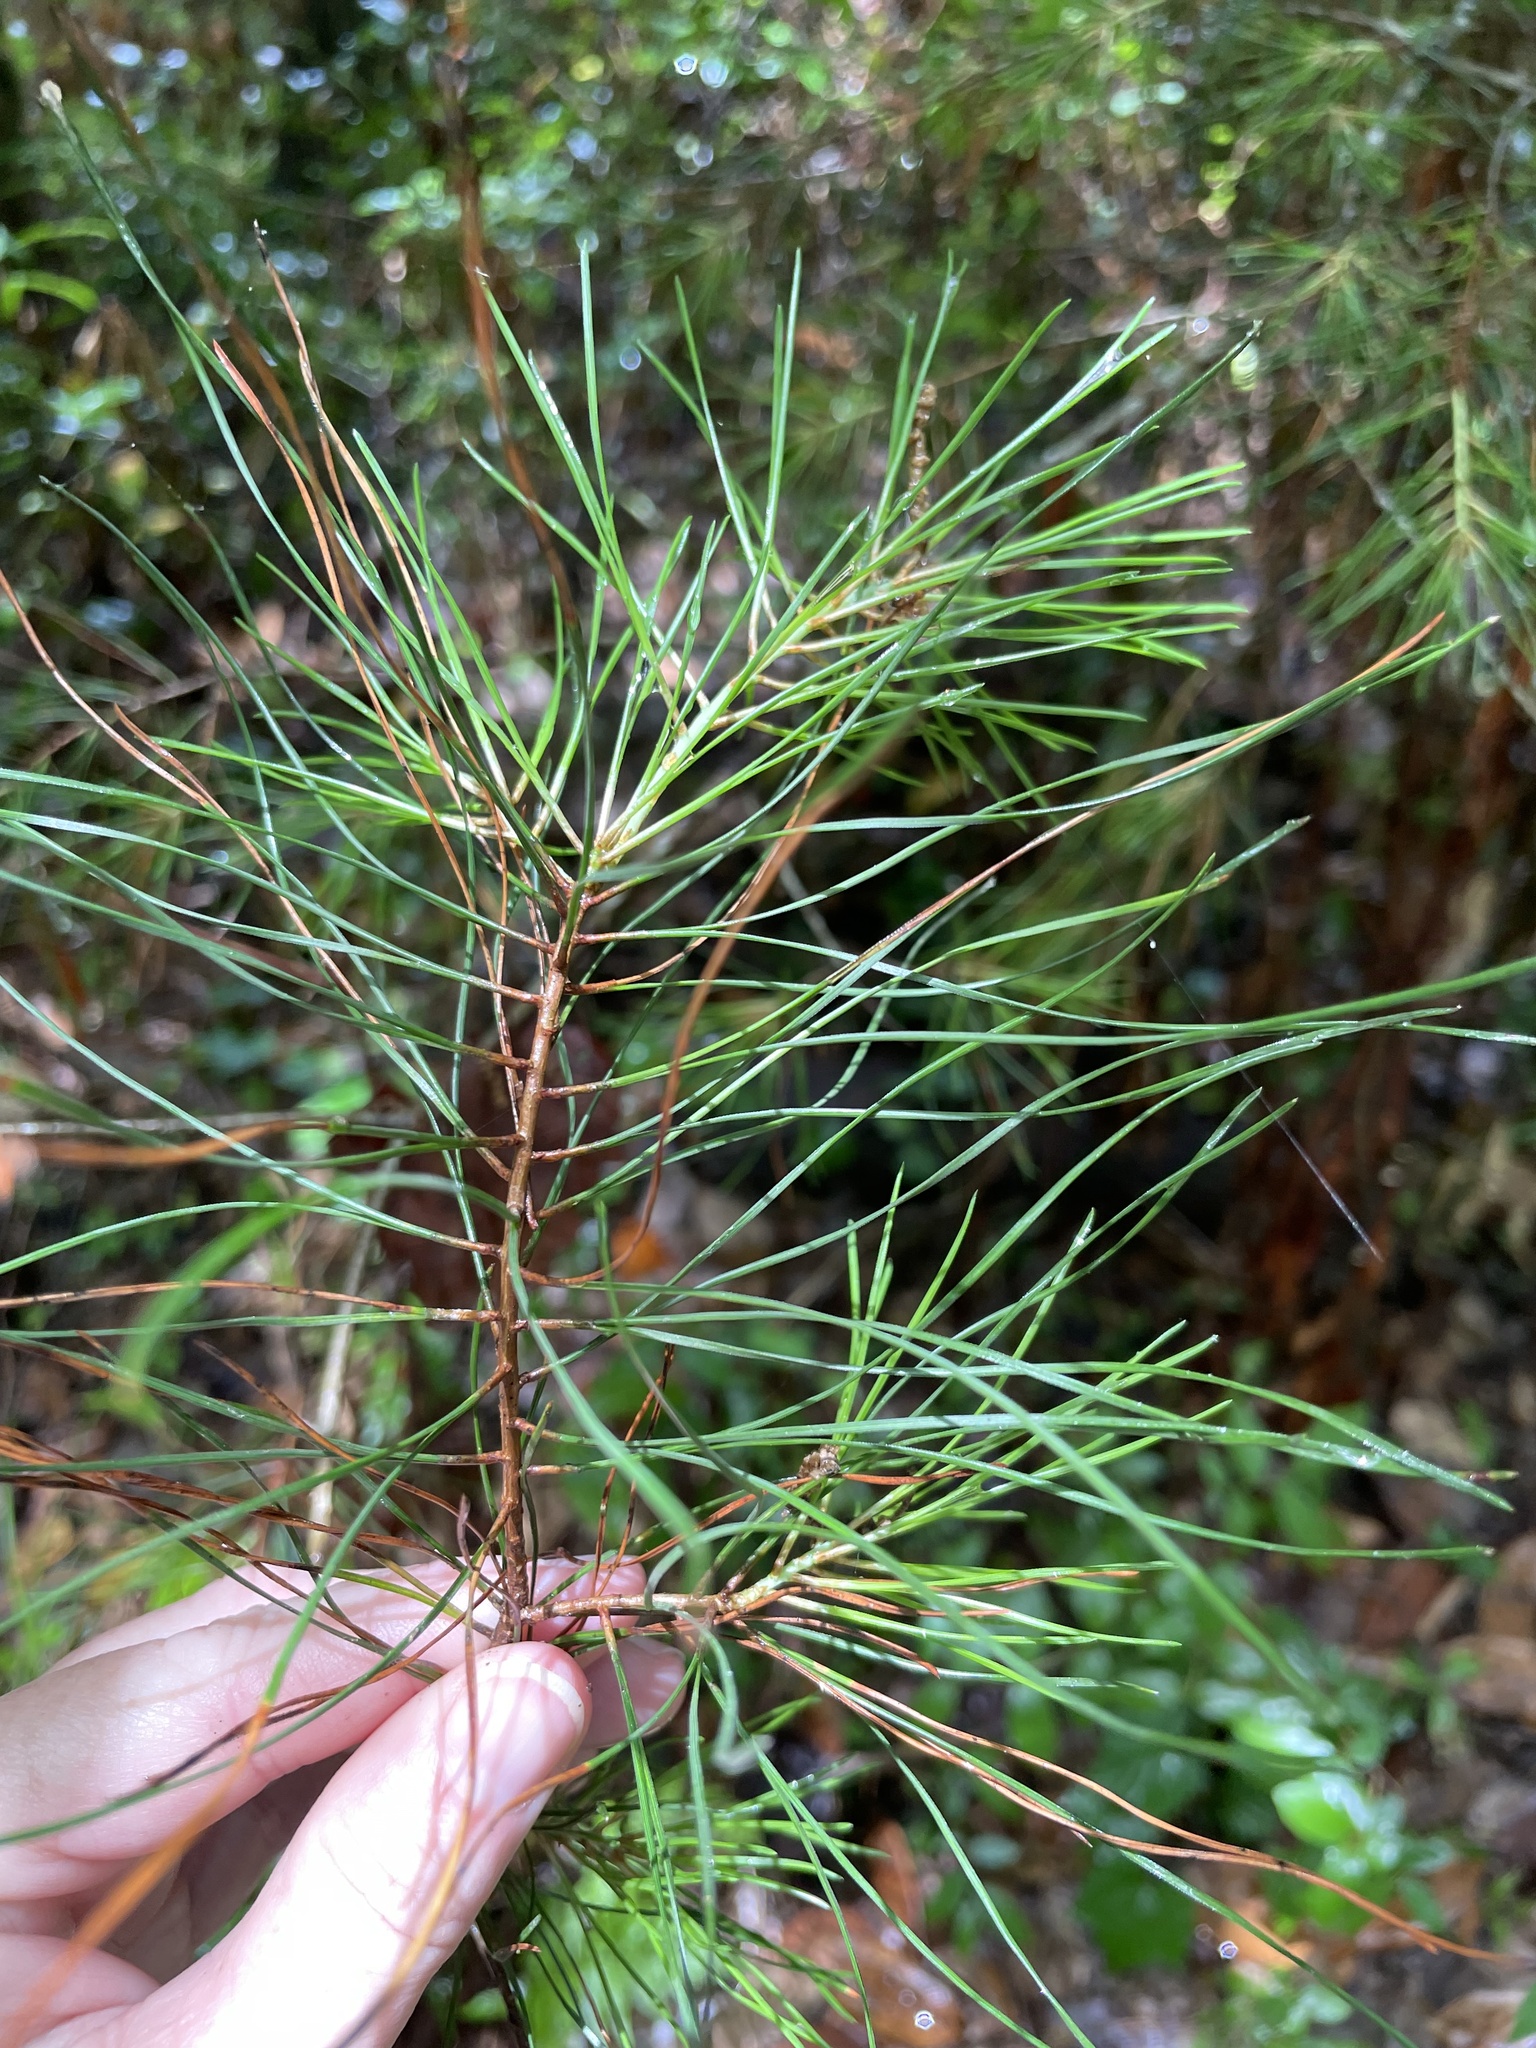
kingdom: Plantae
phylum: Tracheophyta
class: Pinopsida
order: Pinales
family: Pinaceae
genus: Pinus
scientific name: Pinus glabra
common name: Spruce pine
